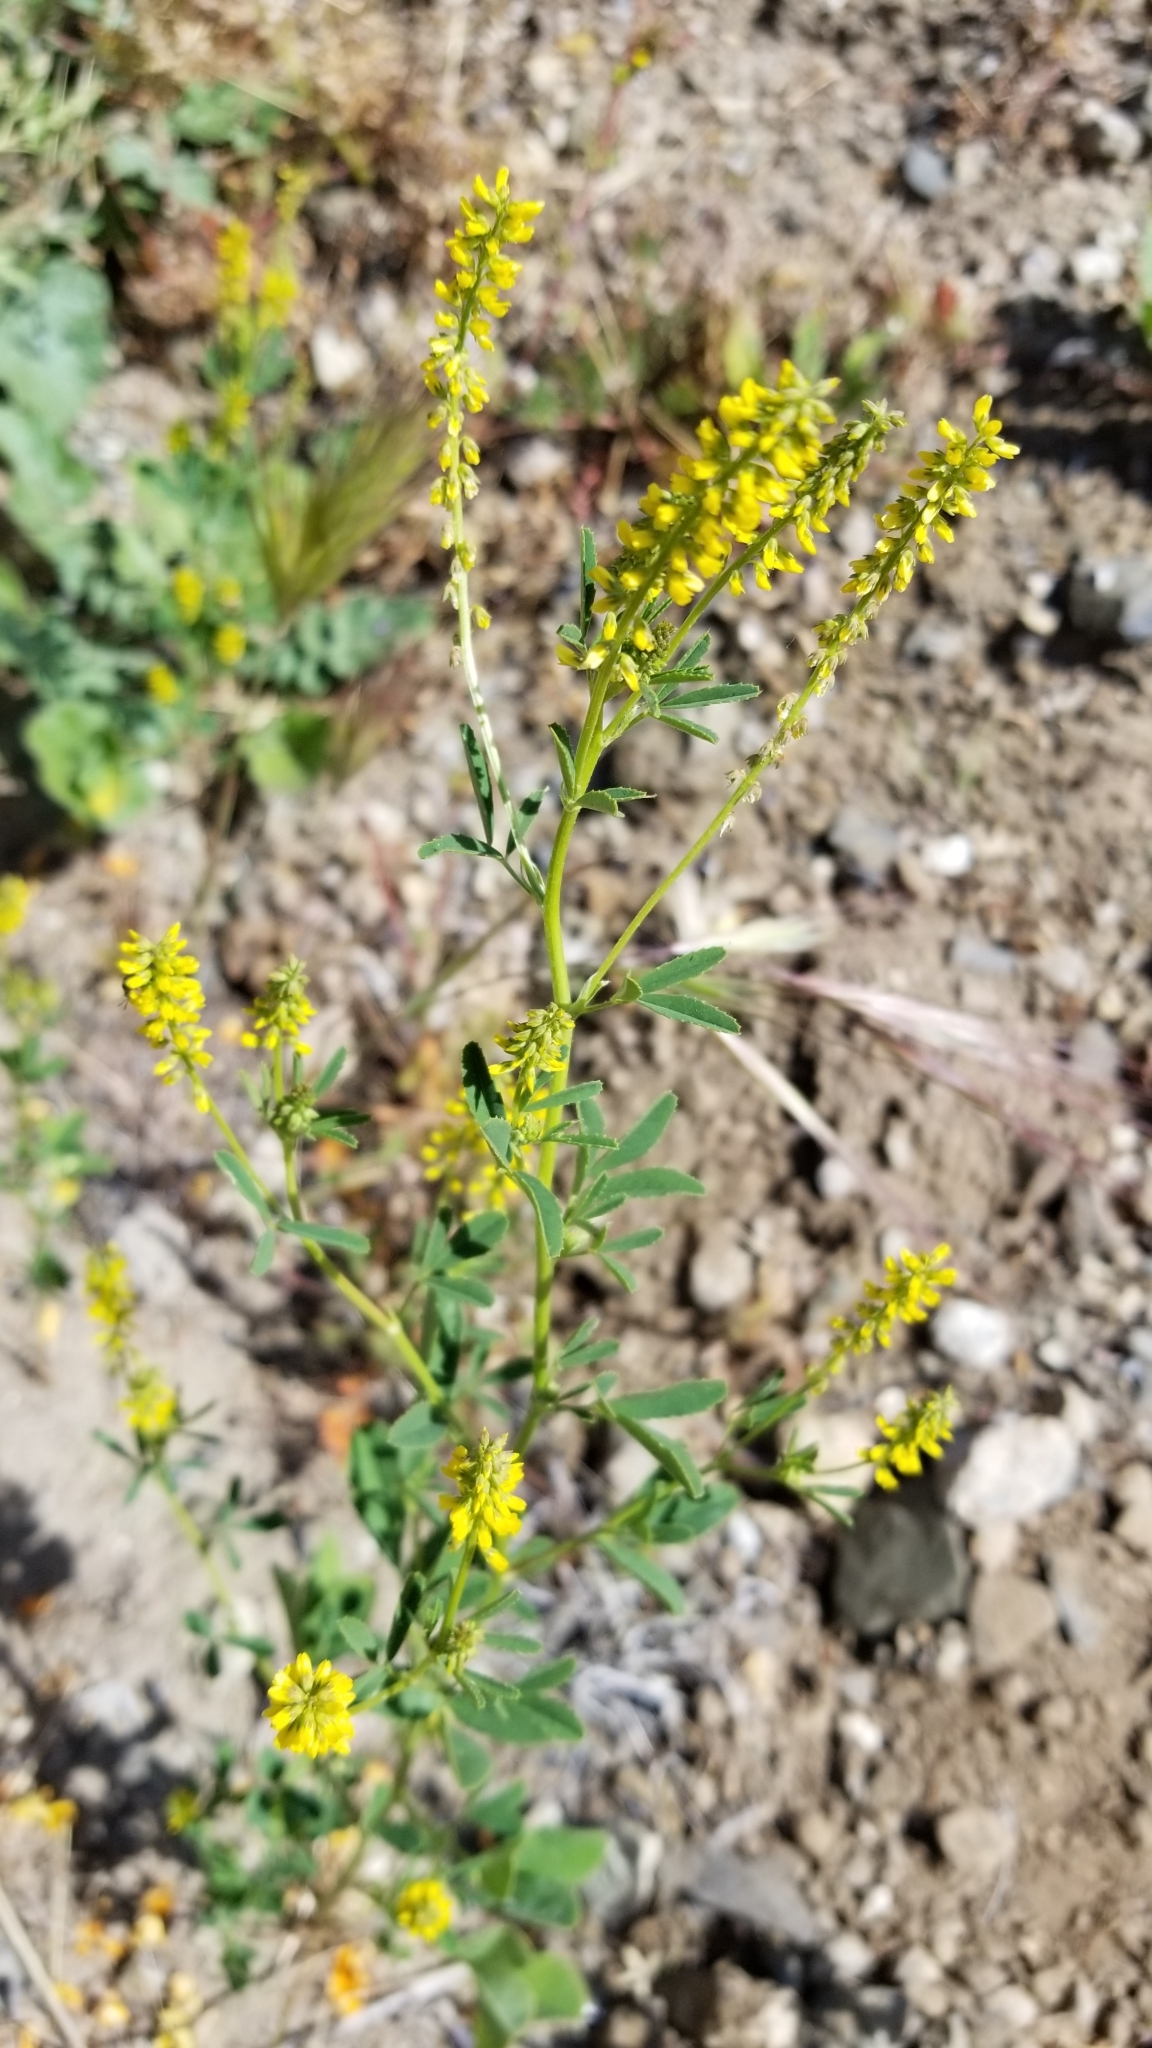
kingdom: Plantae
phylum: Tracheophyta
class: Magnoliopsida
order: Fabales
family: Fabaceae
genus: Melilotus
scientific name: Melilotus indicus
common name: Small melilot
